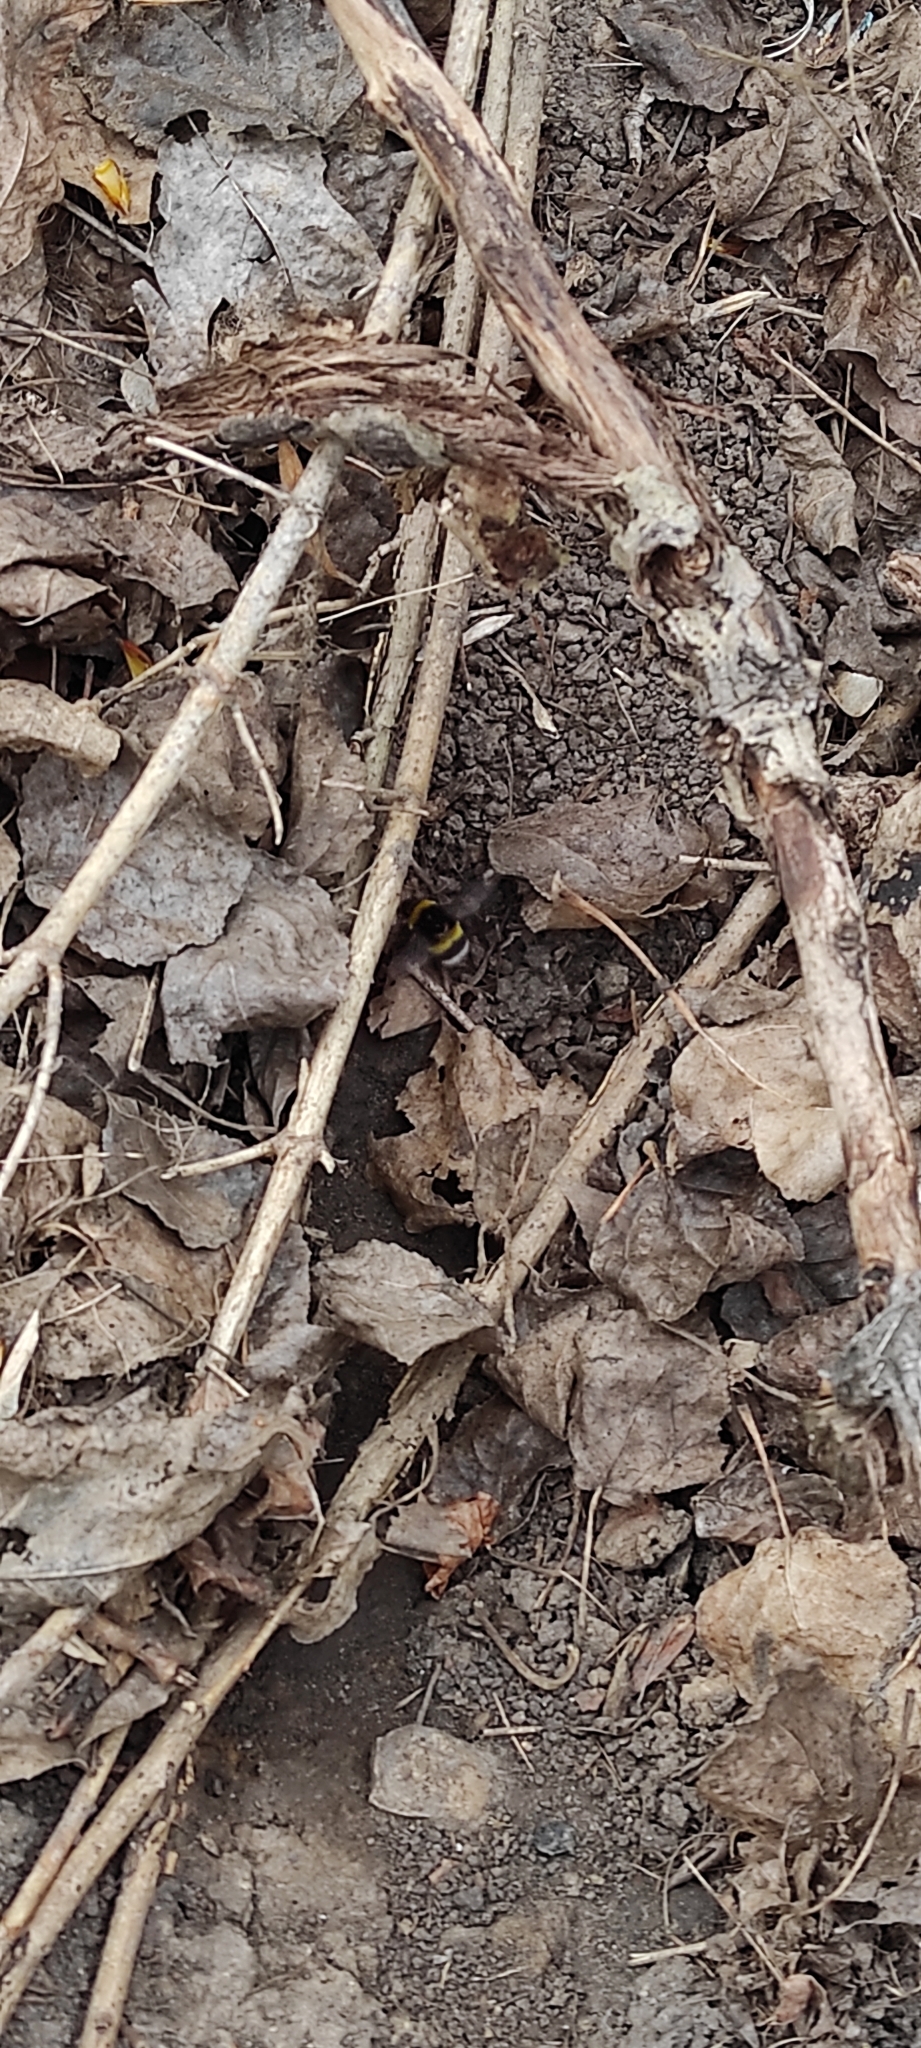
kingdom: Animalia
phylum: Arthropoda
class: Insecta
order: Hymenoptera
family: Apidae
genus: Bombus
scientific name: Bombus
